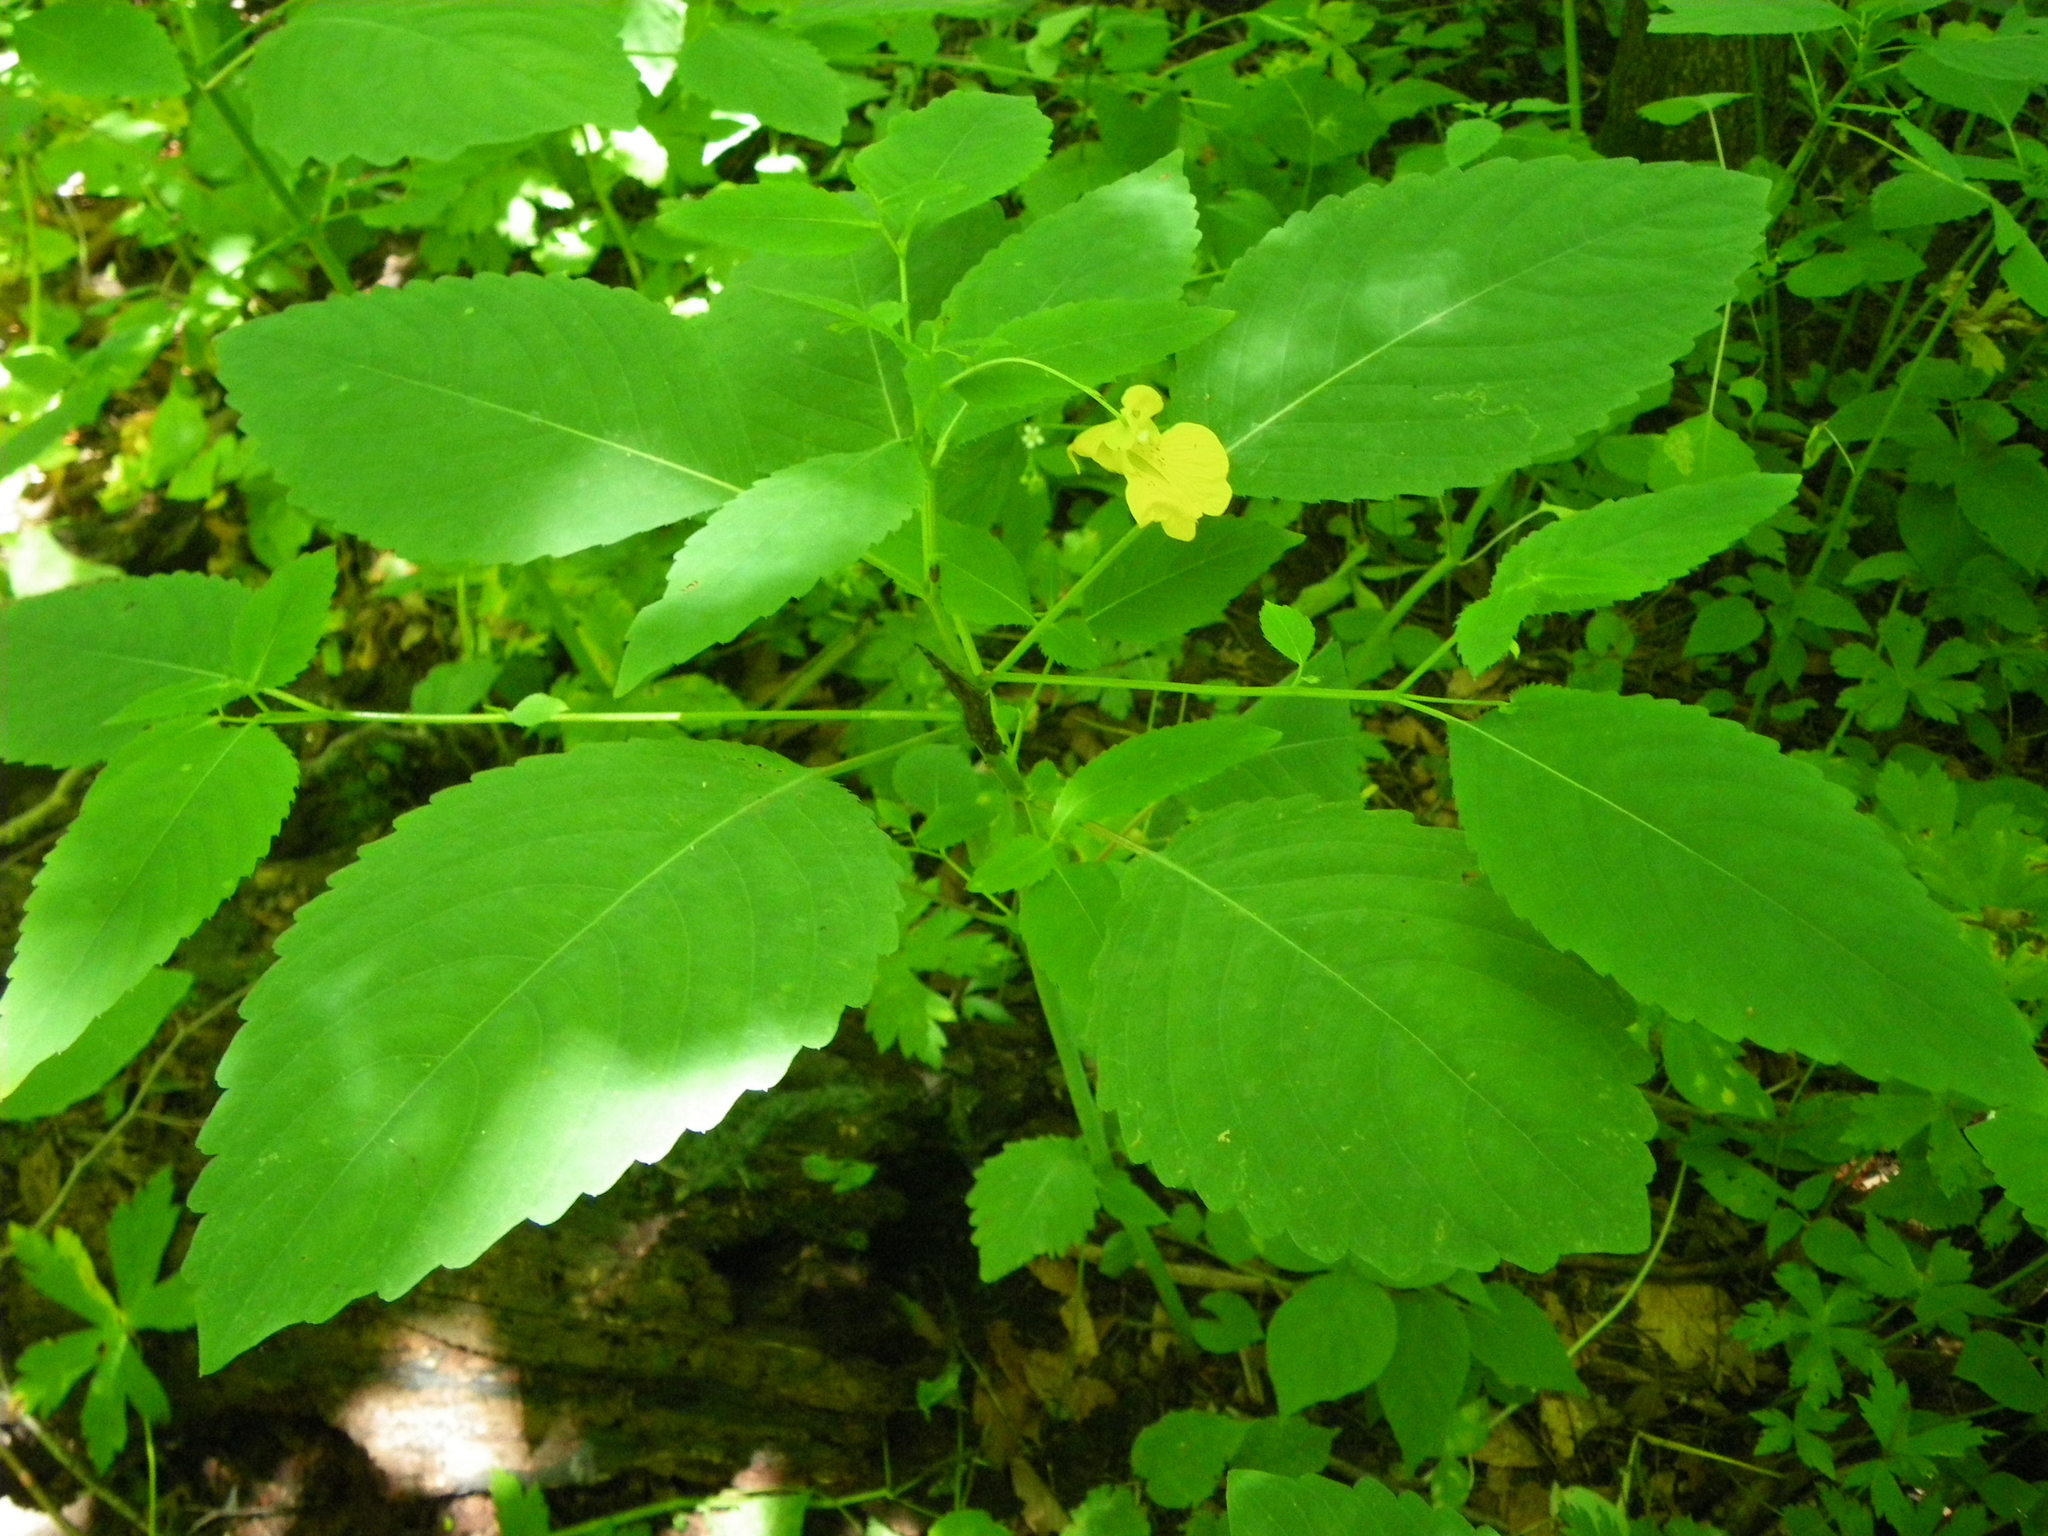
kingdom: Plantae
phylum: Tracheophyta
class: Magnoliopsida
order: Ericales
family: Balsaminaceae
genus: Impatiens
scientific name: Impatiens pallida
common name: Pale snapweed
